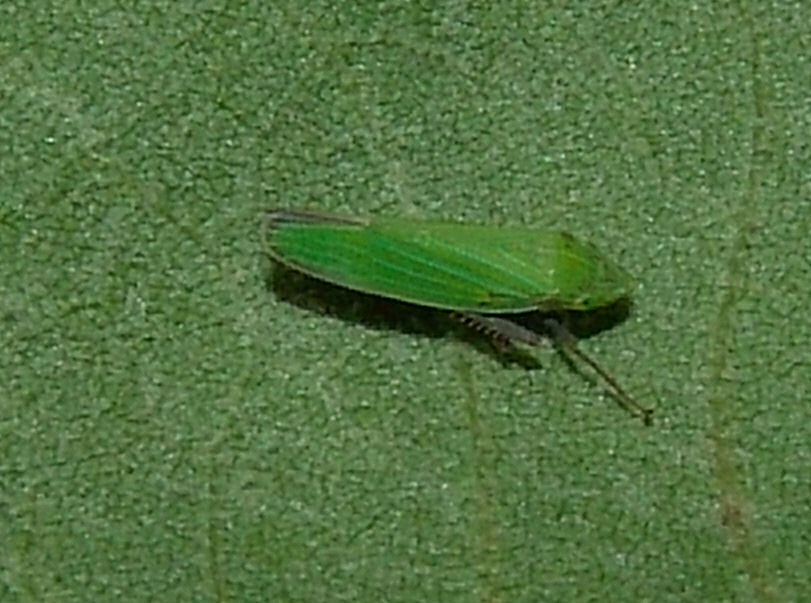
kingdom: Animalia
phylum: Arthropoda
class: Insecta
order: Hemiptera
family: Cicadellidae
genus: Draeculacephala
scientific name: Draeculacephala
